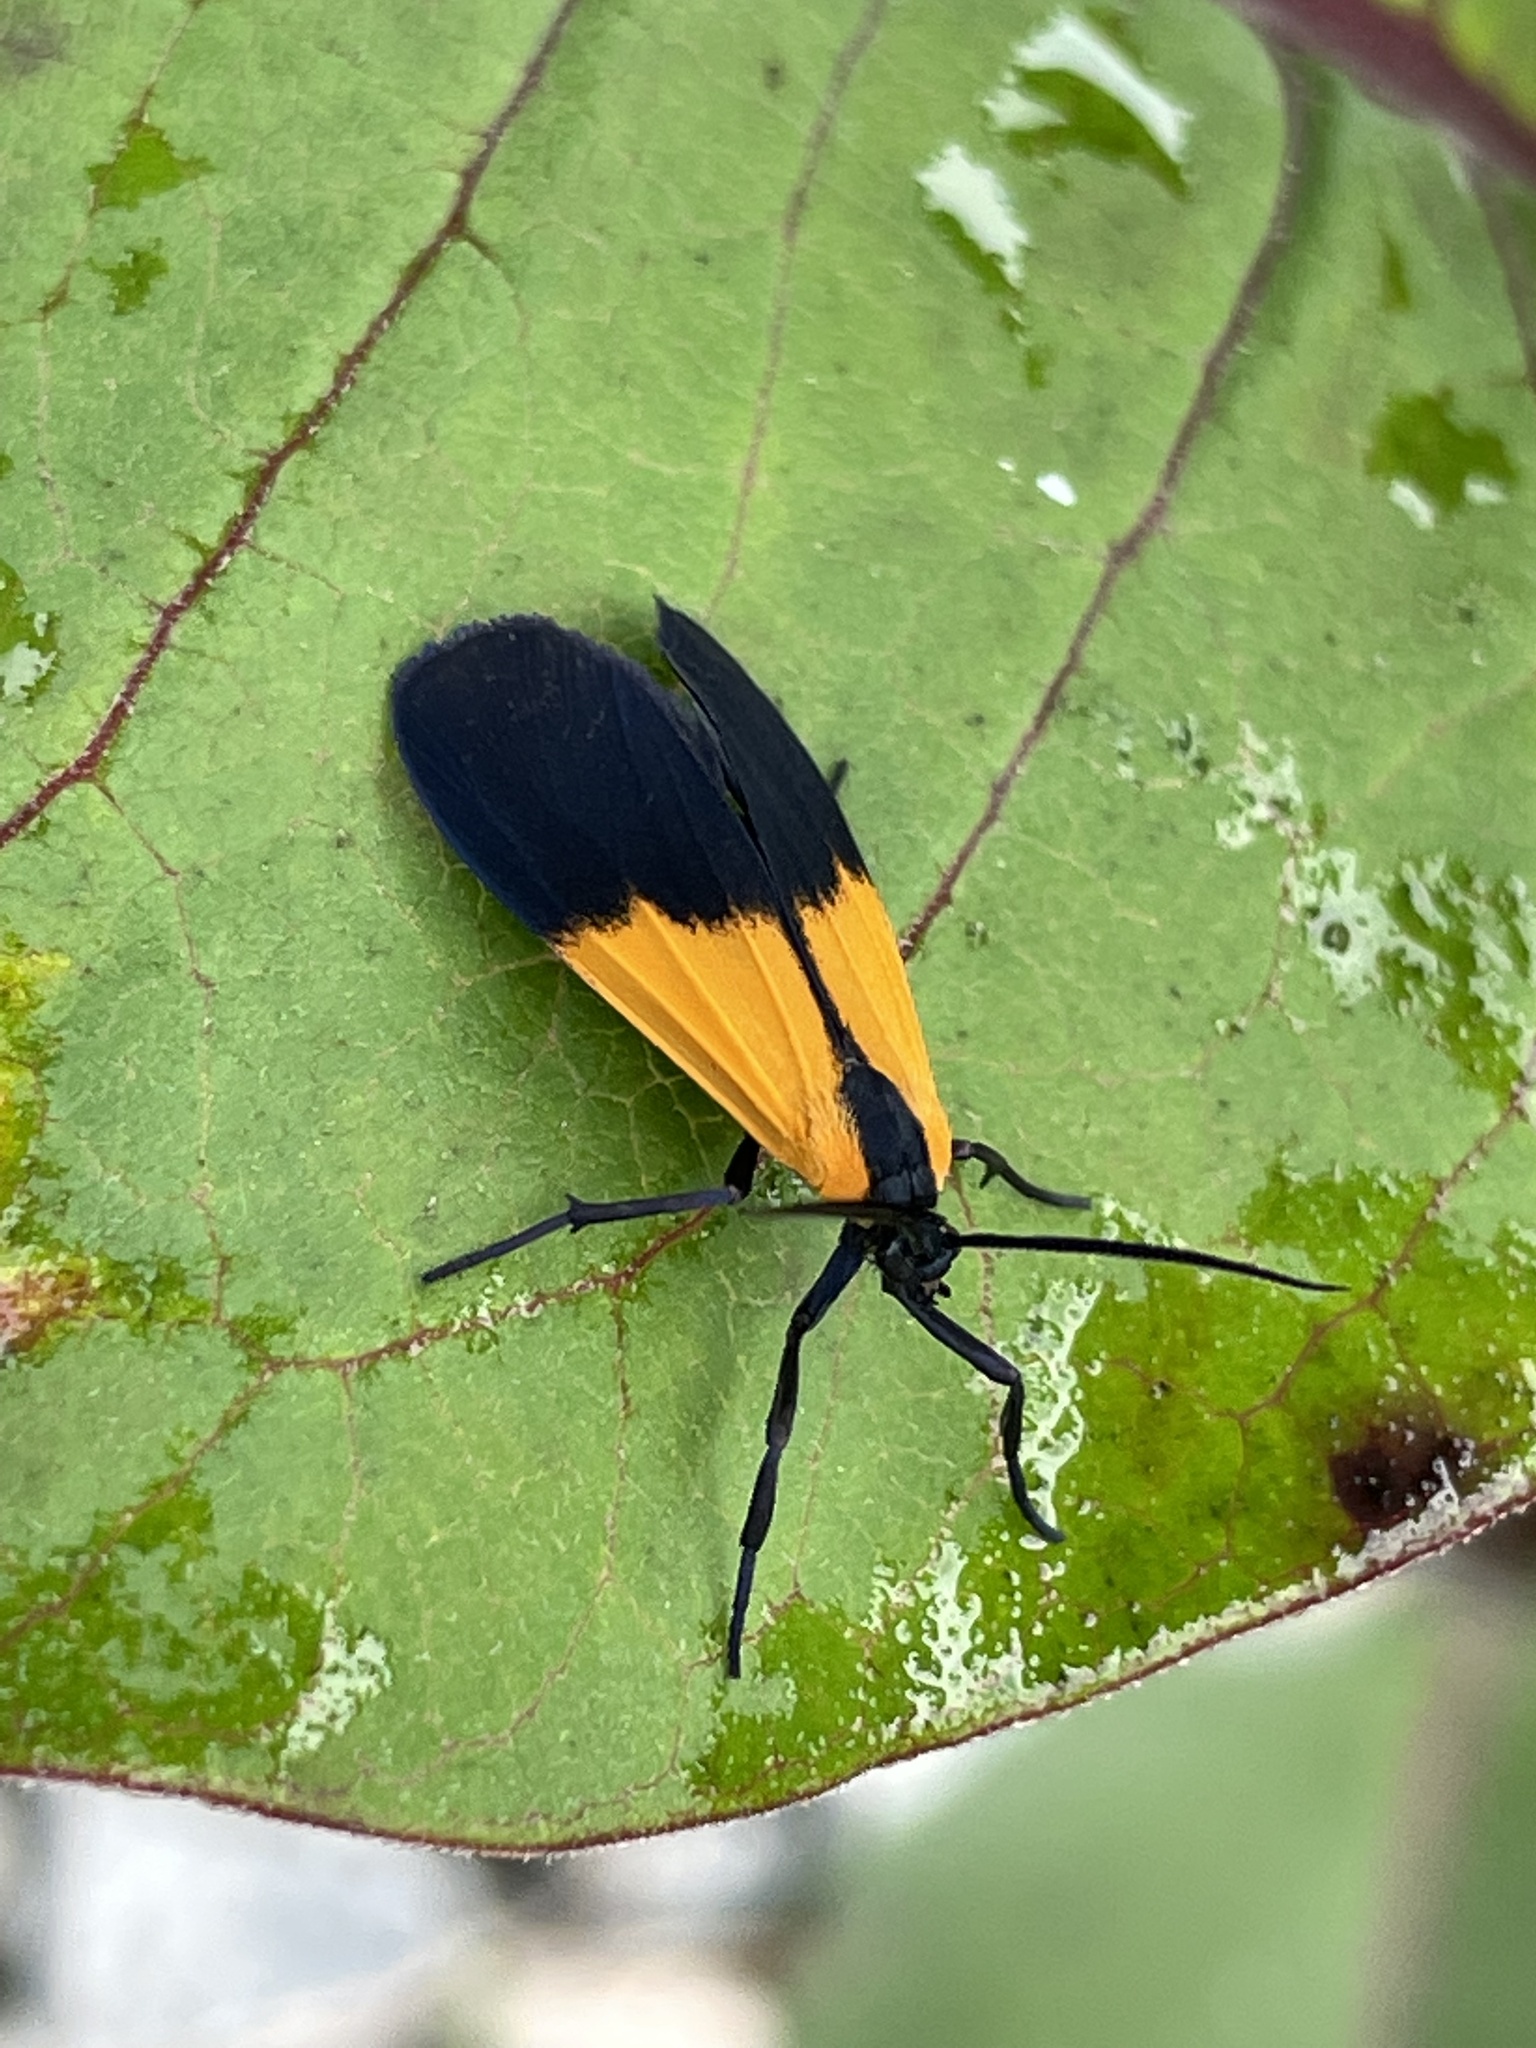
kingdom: Animalia
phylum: Arthropoda
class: Insecta
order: Lepidoptera
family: Erebidae
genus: Lycomorpha
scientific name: Lycomorpha pholus
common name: Black-and-yellow lichen moth
